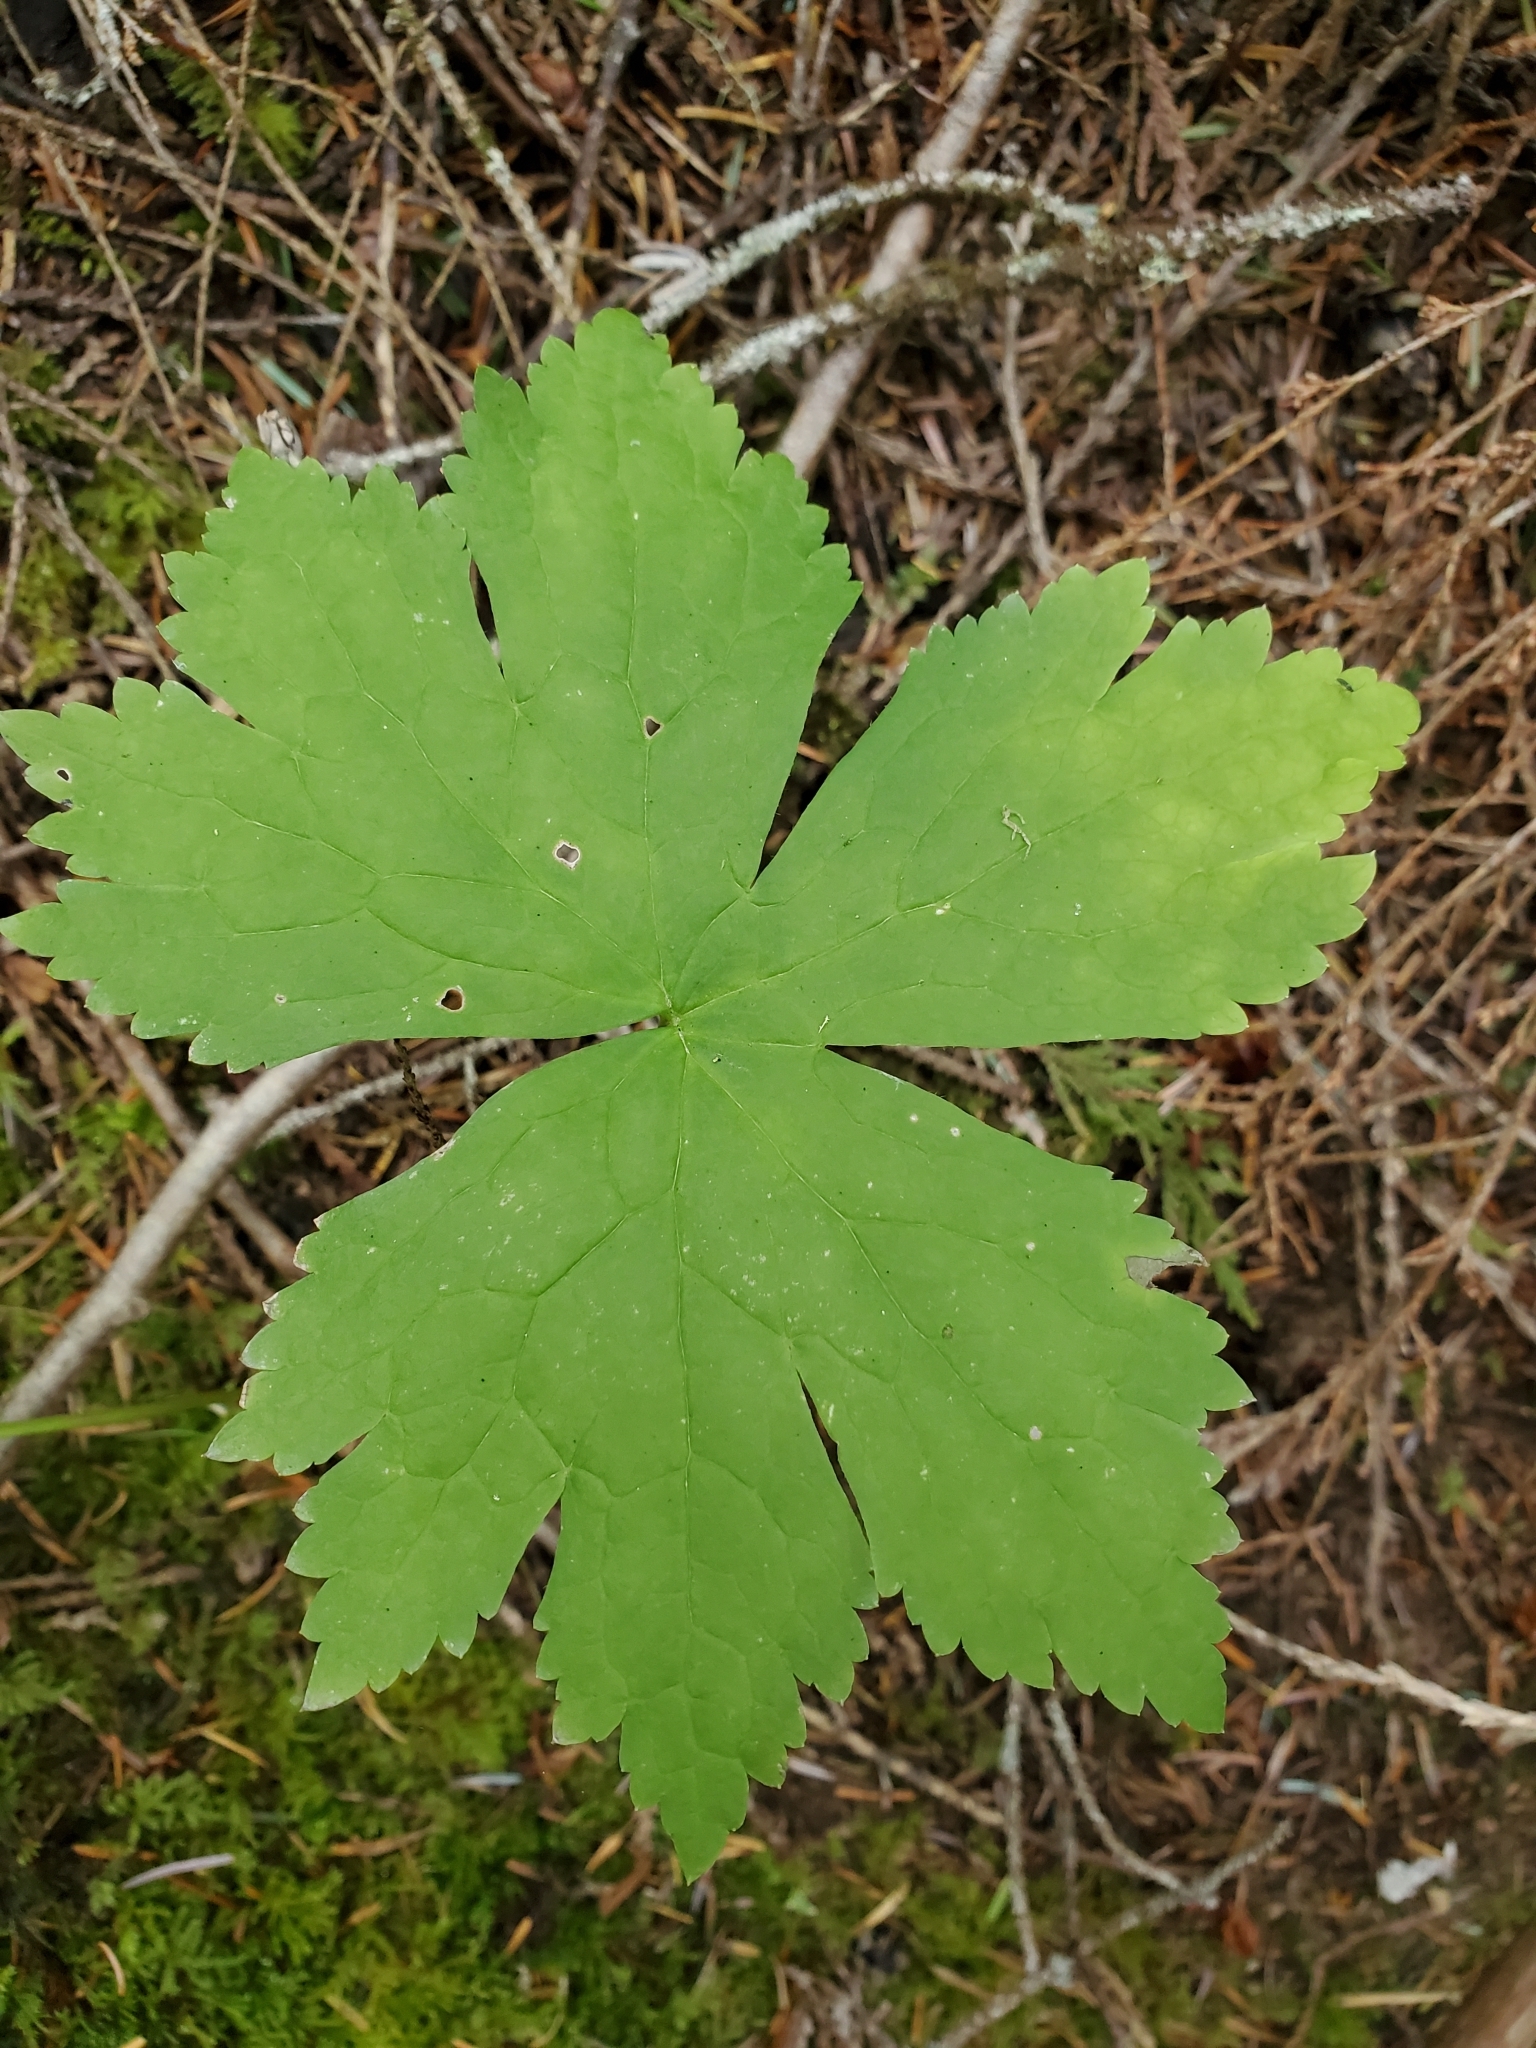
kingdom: Plantae
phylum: Tracheophyta
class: Magnoliopsida
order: Ranunculales
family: Ranunculaceae
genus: Trautvetteria
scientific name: Trautvetteria carolinensis
